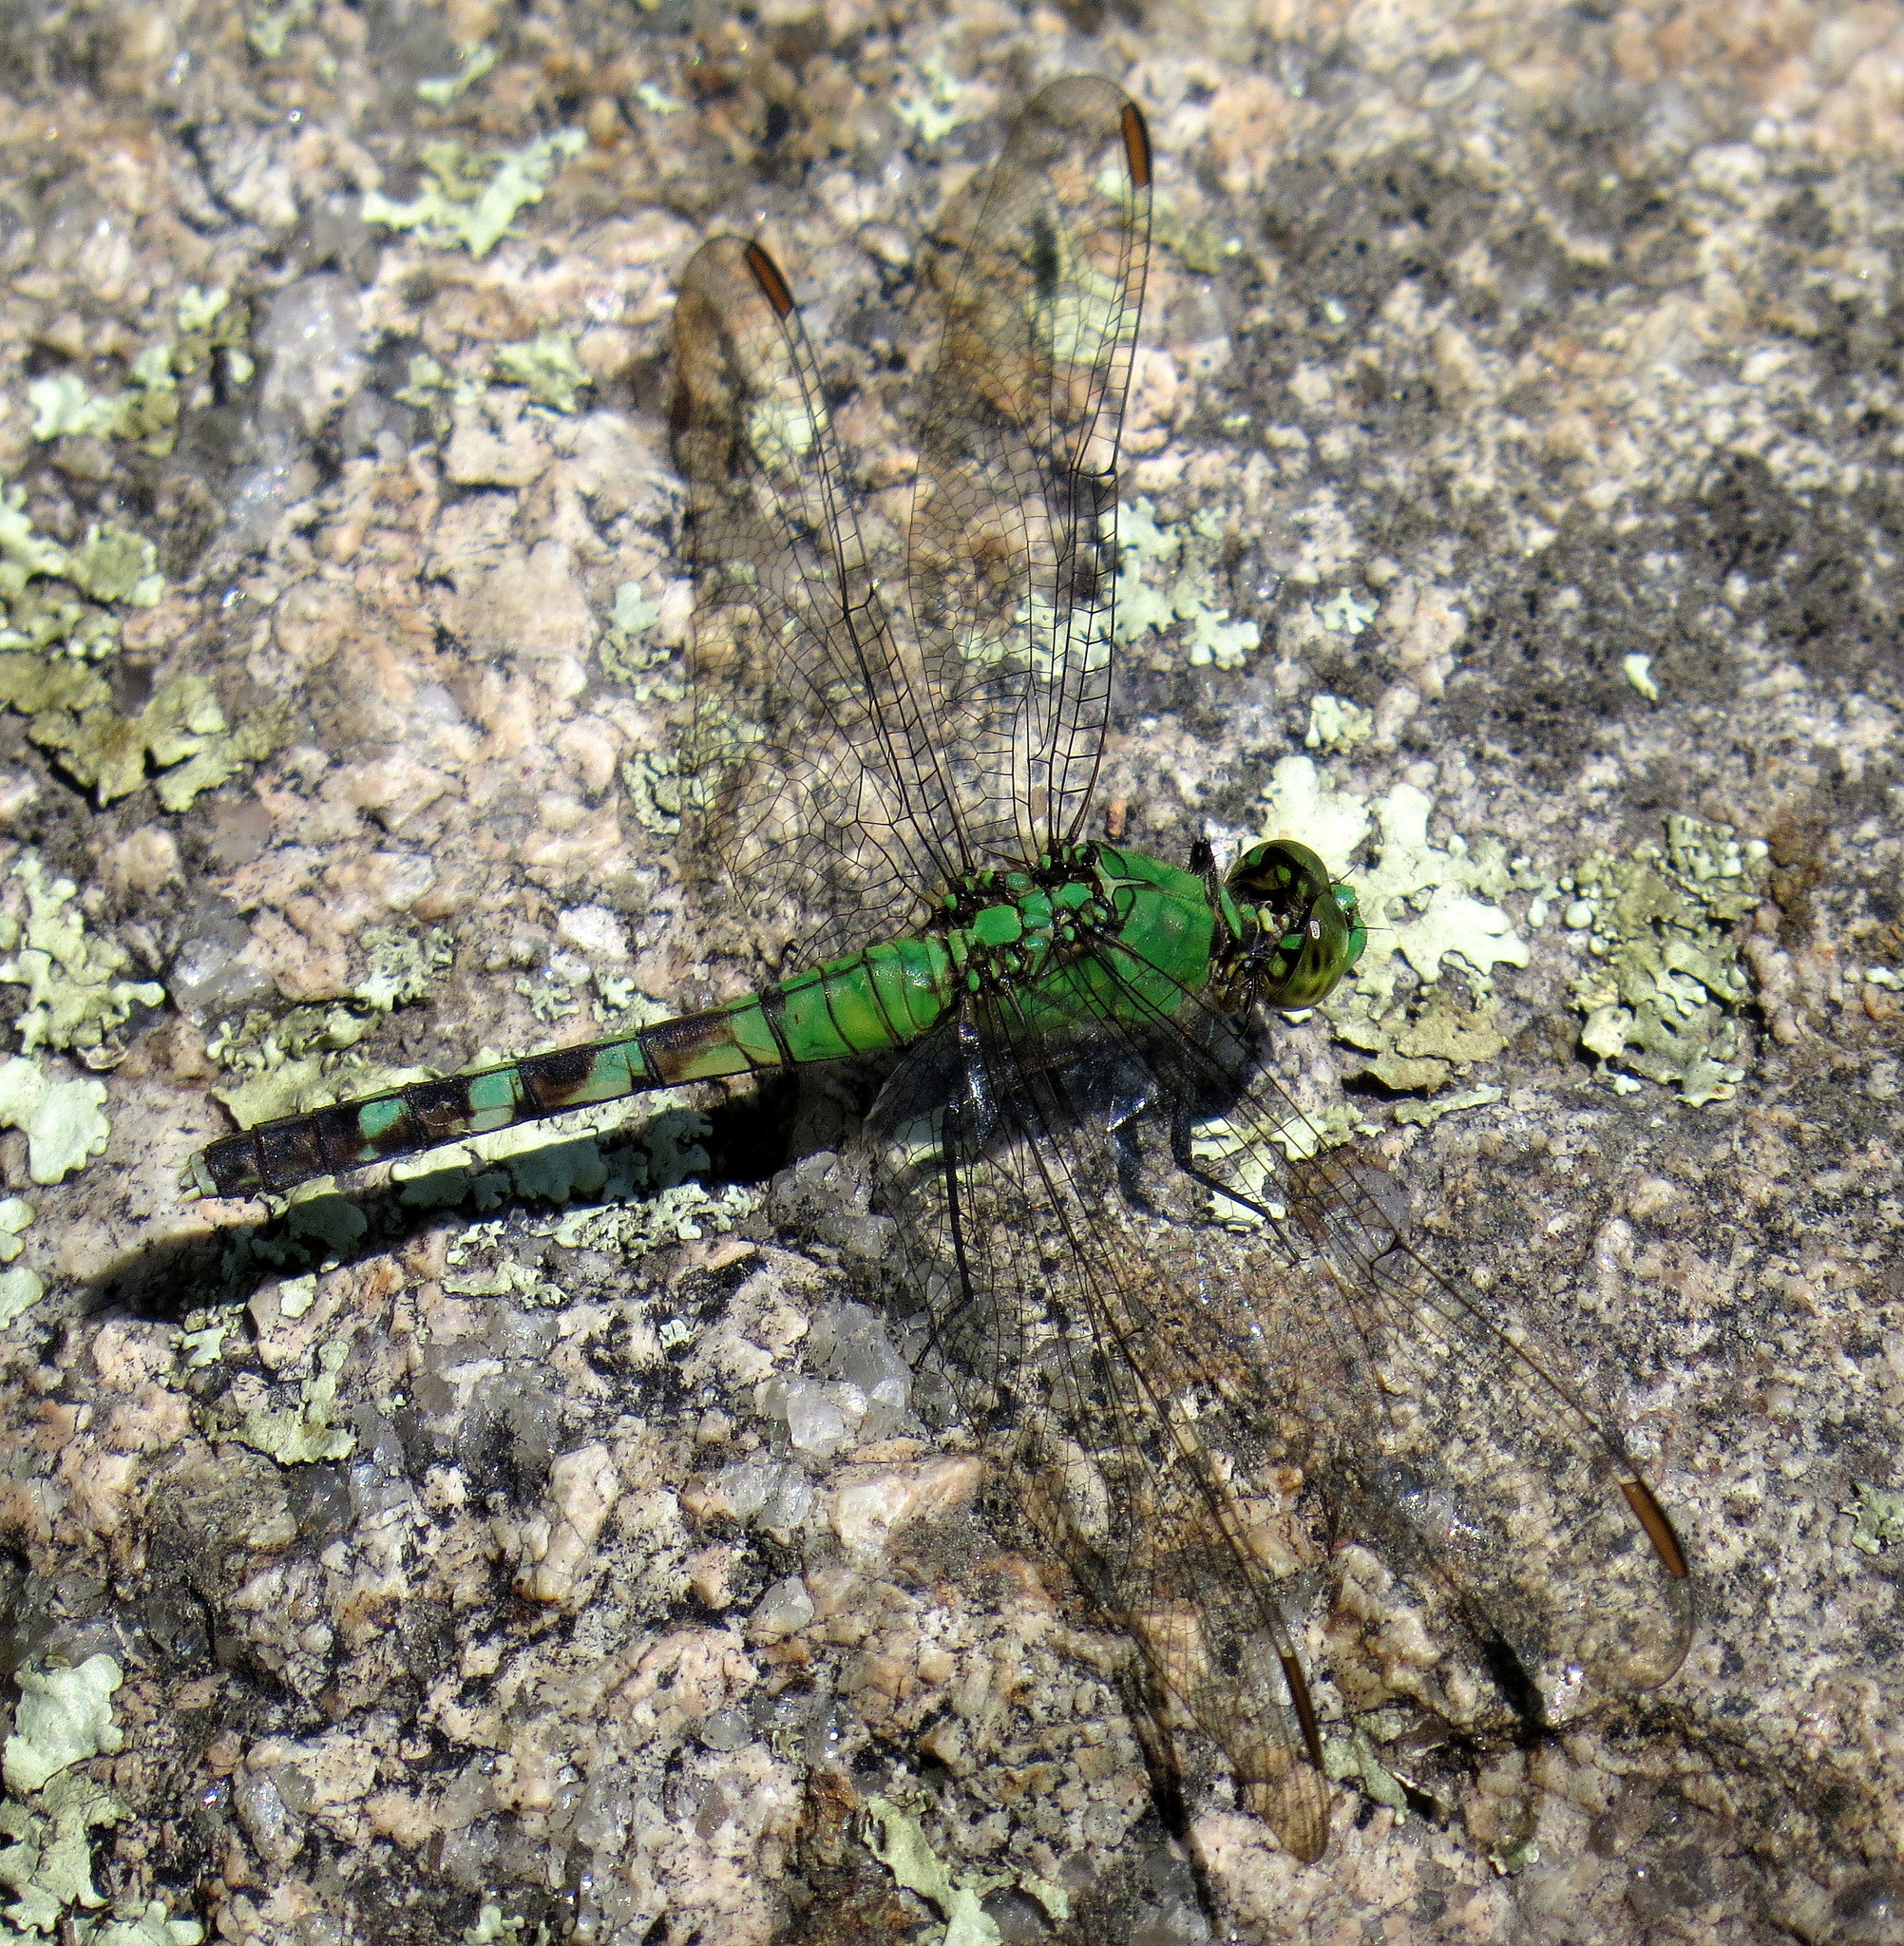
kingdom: Animalia
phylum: Arthropoda
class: Insecta
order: Odonata
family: Libellulidae
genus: Erythemis
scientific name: Erythemis simplicicollis
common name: Eastern pondhawk
